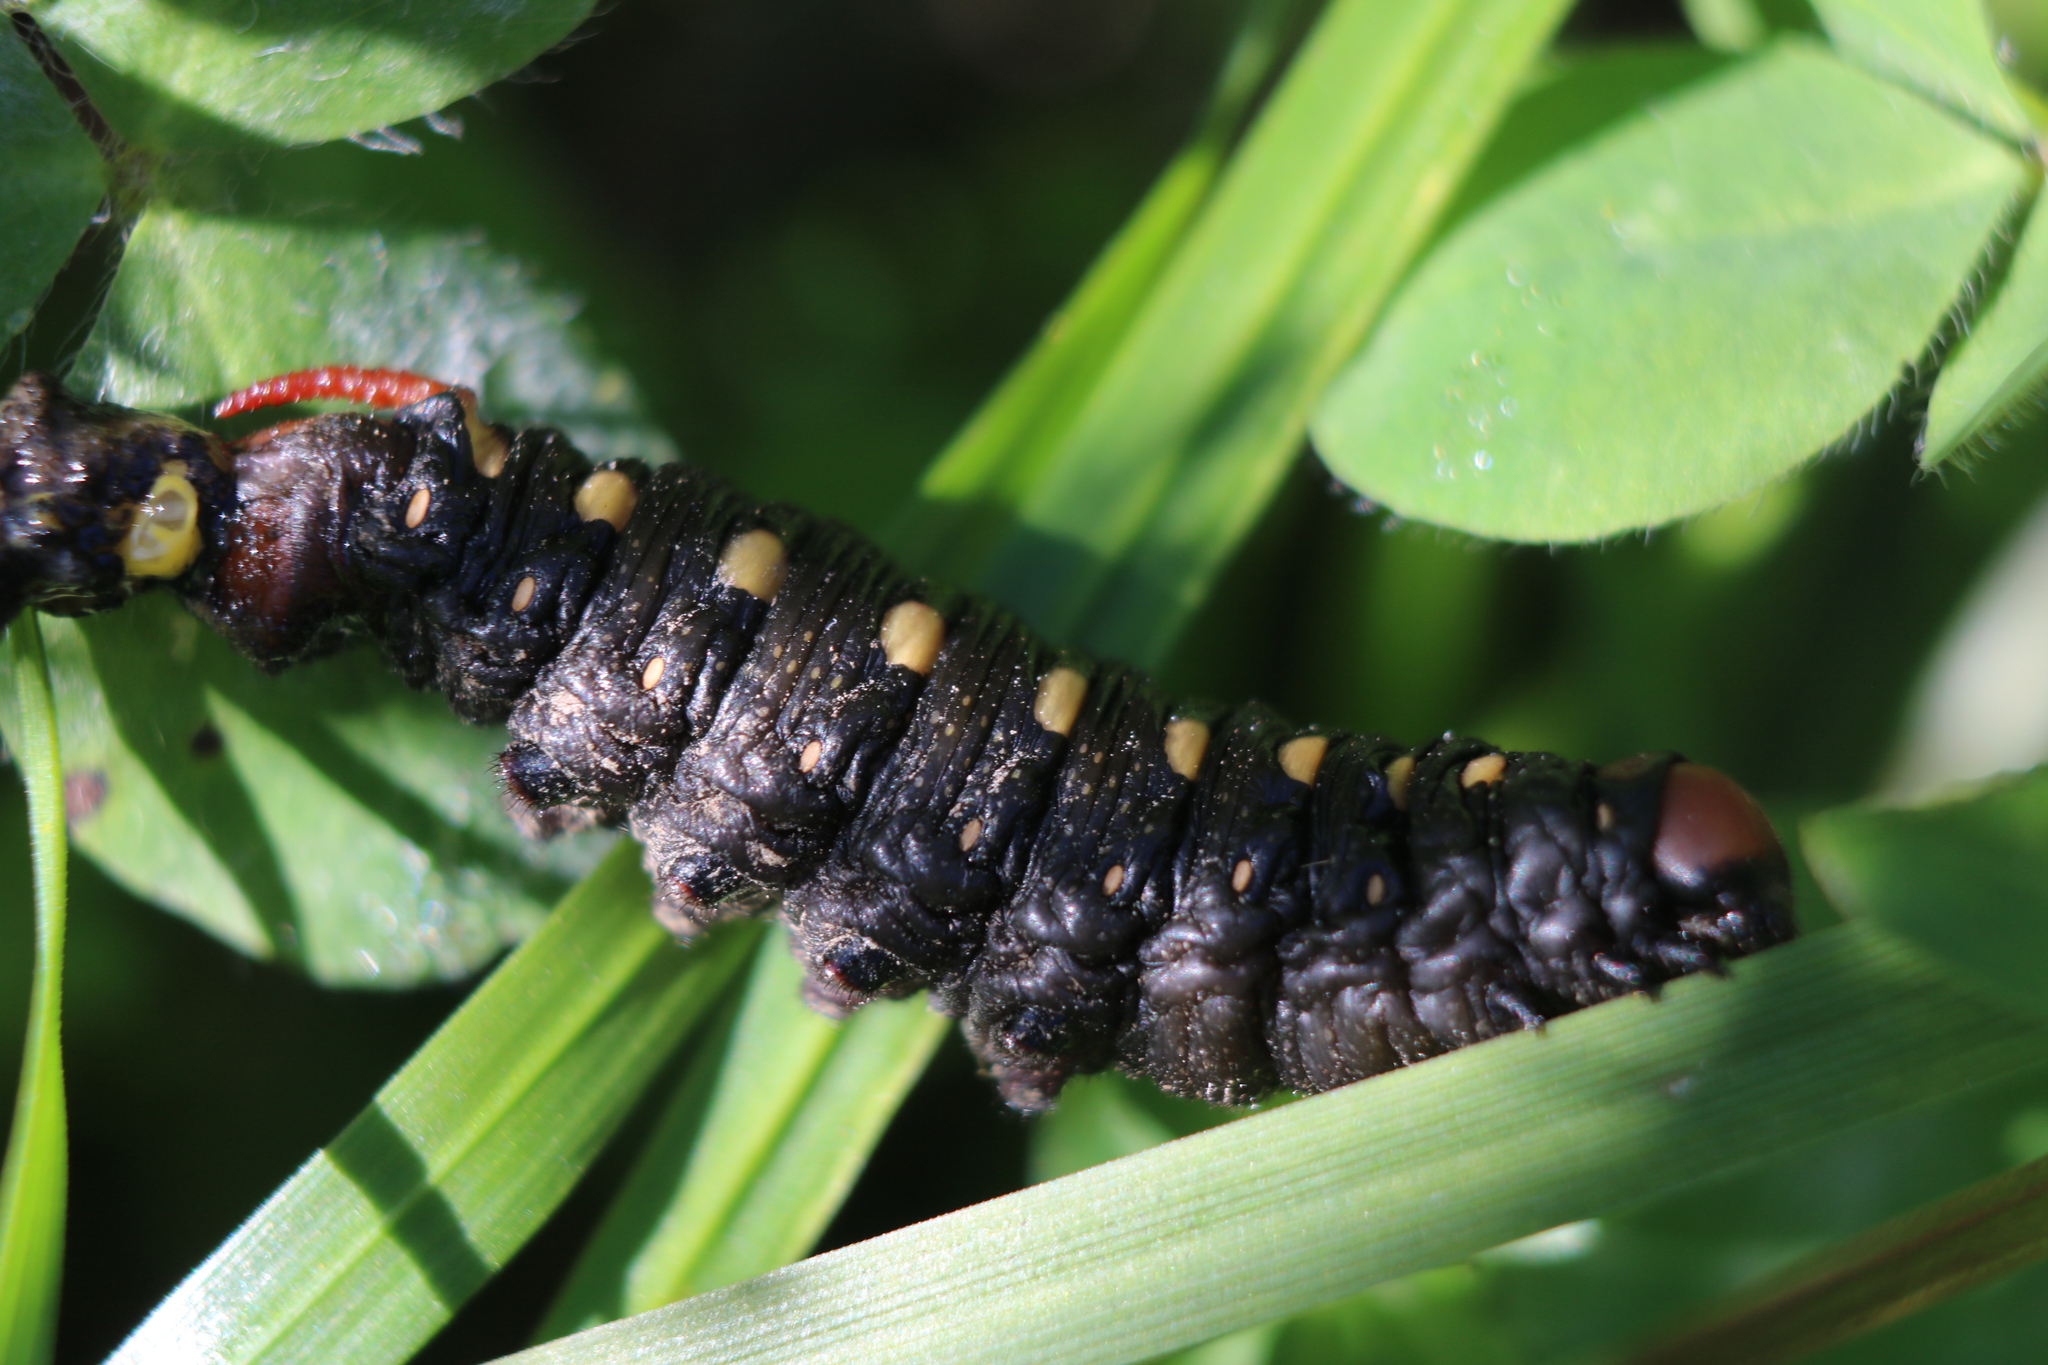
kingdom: Animalia
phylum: Arthropoda
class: Insecta
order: Lepidoptera
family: Sphingidae
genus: Hyles
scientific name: Hyles gallii
